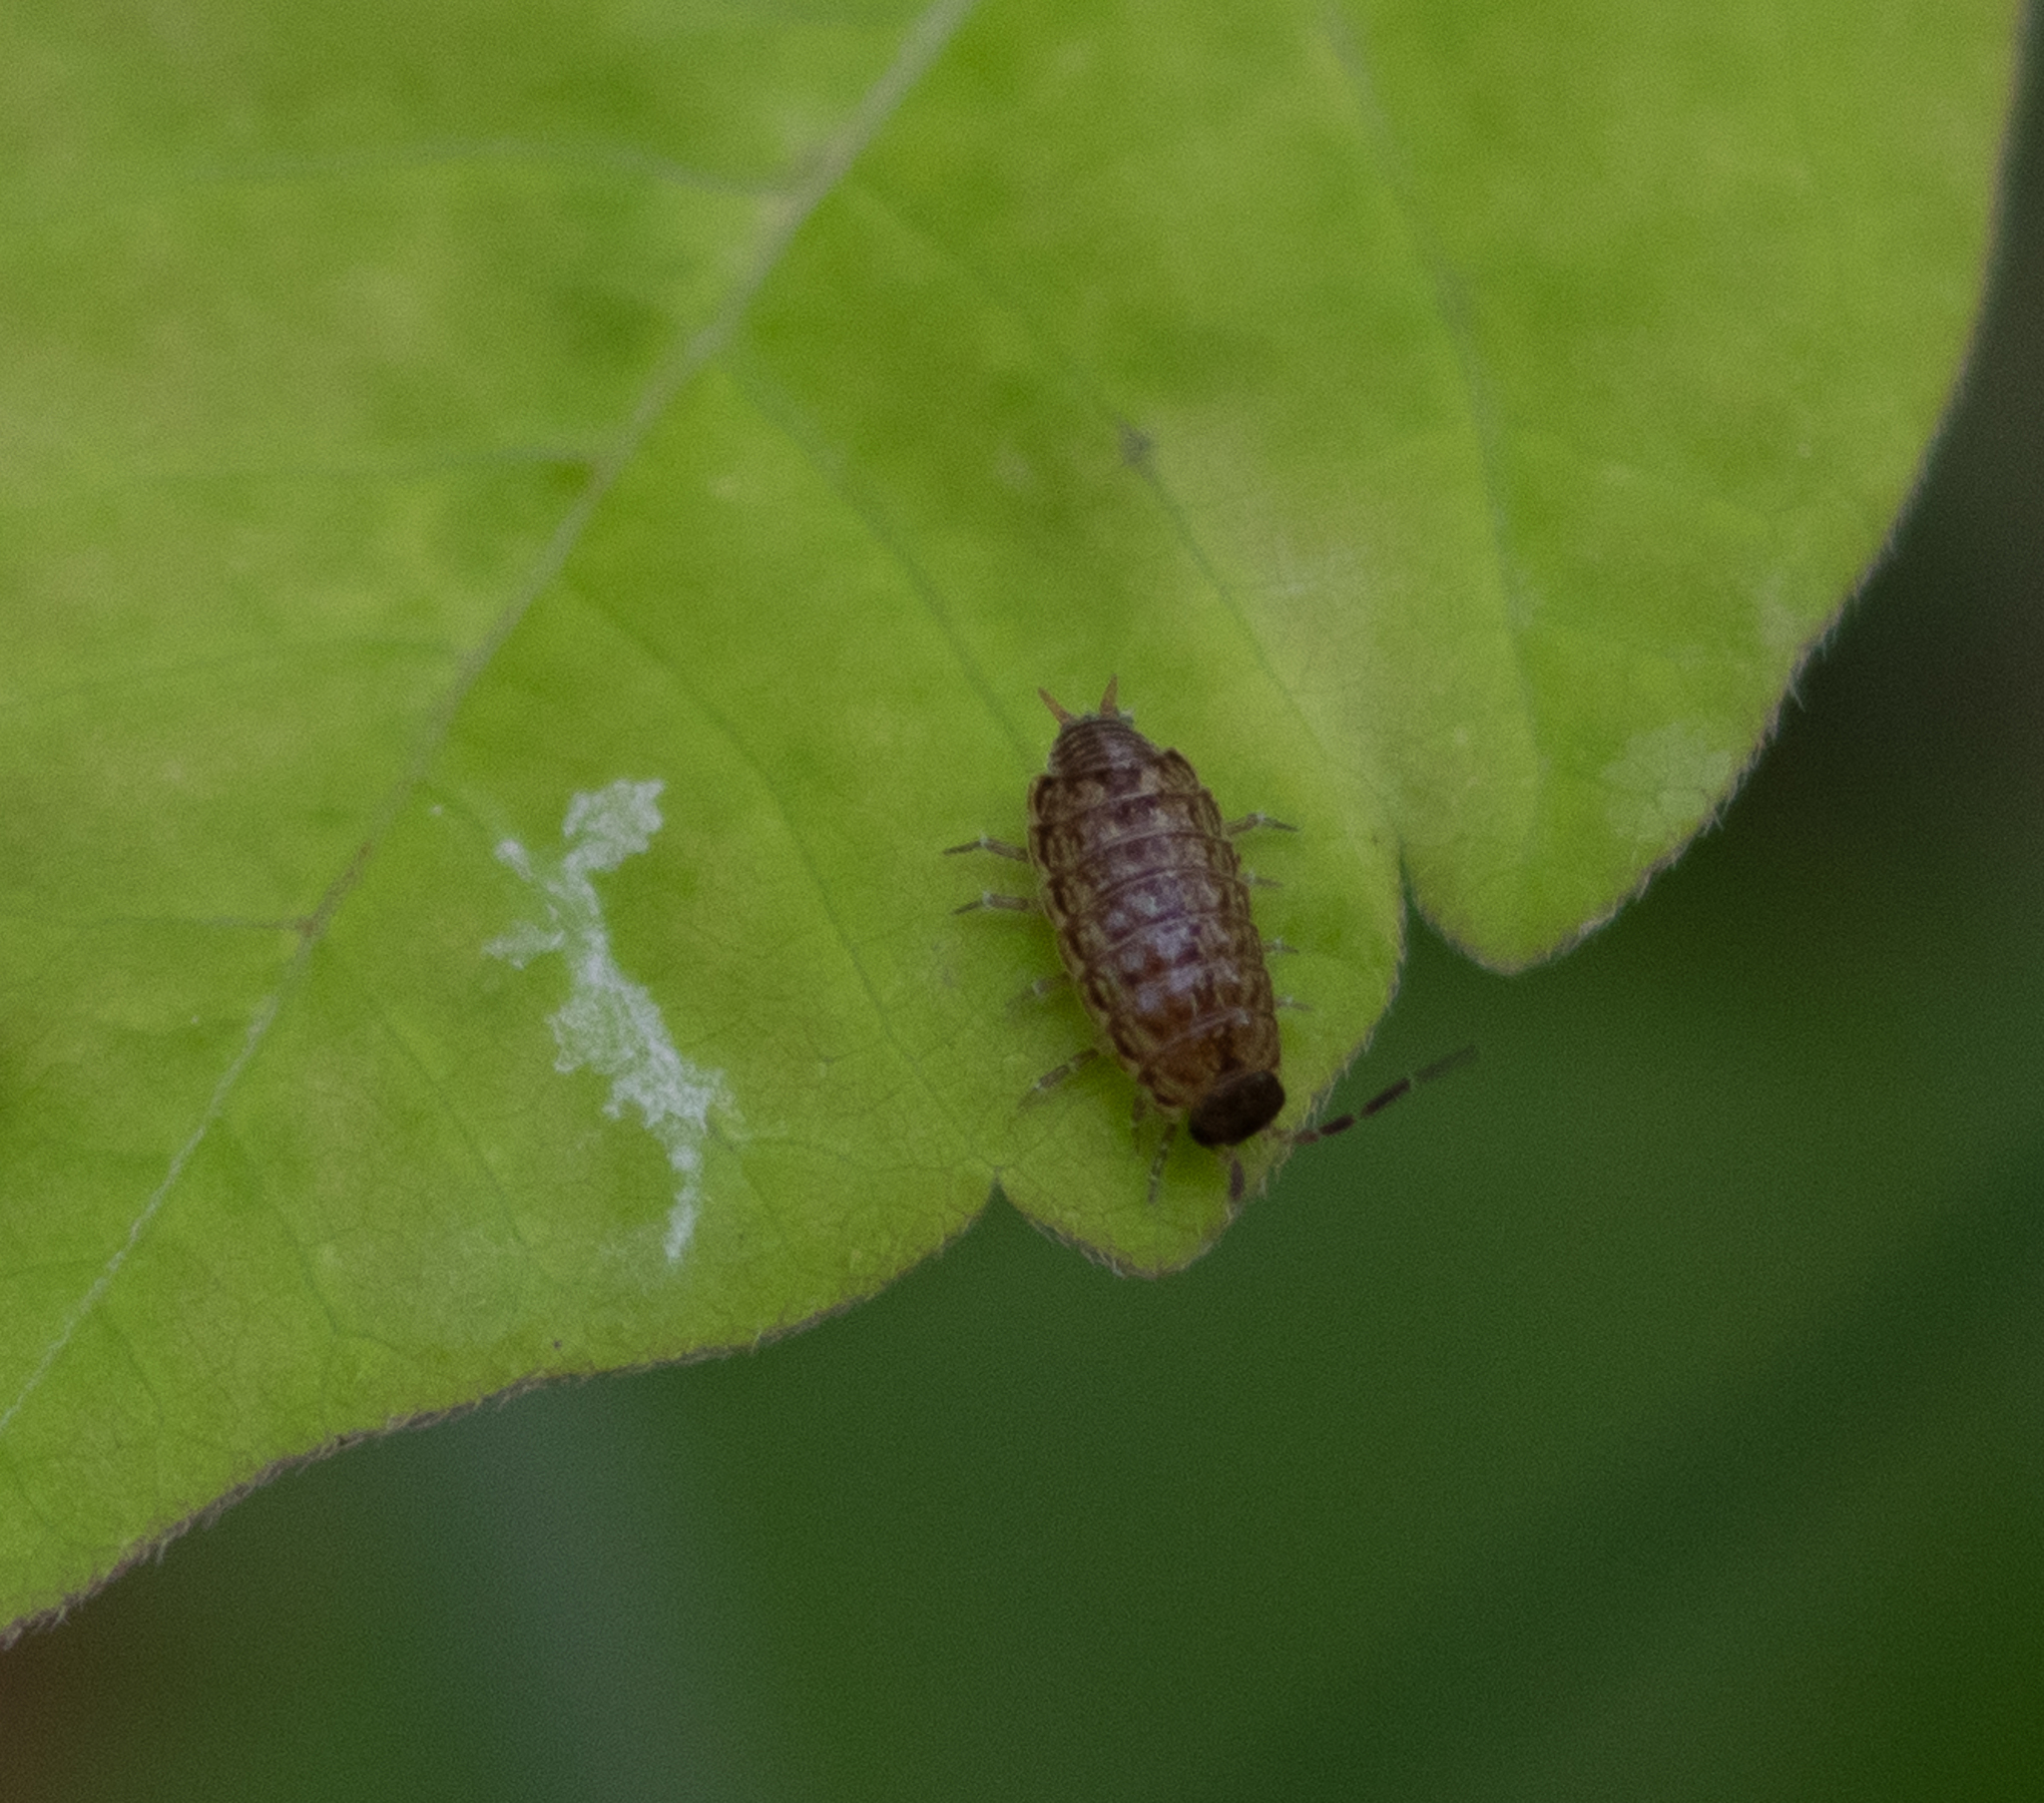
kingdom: Animalia
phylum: Arthropoda
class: Malacostraca
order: Isopoda
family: Philosciidae
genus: Philoscia
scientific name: Philoscia muscorum
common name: Common striped woodlouse
